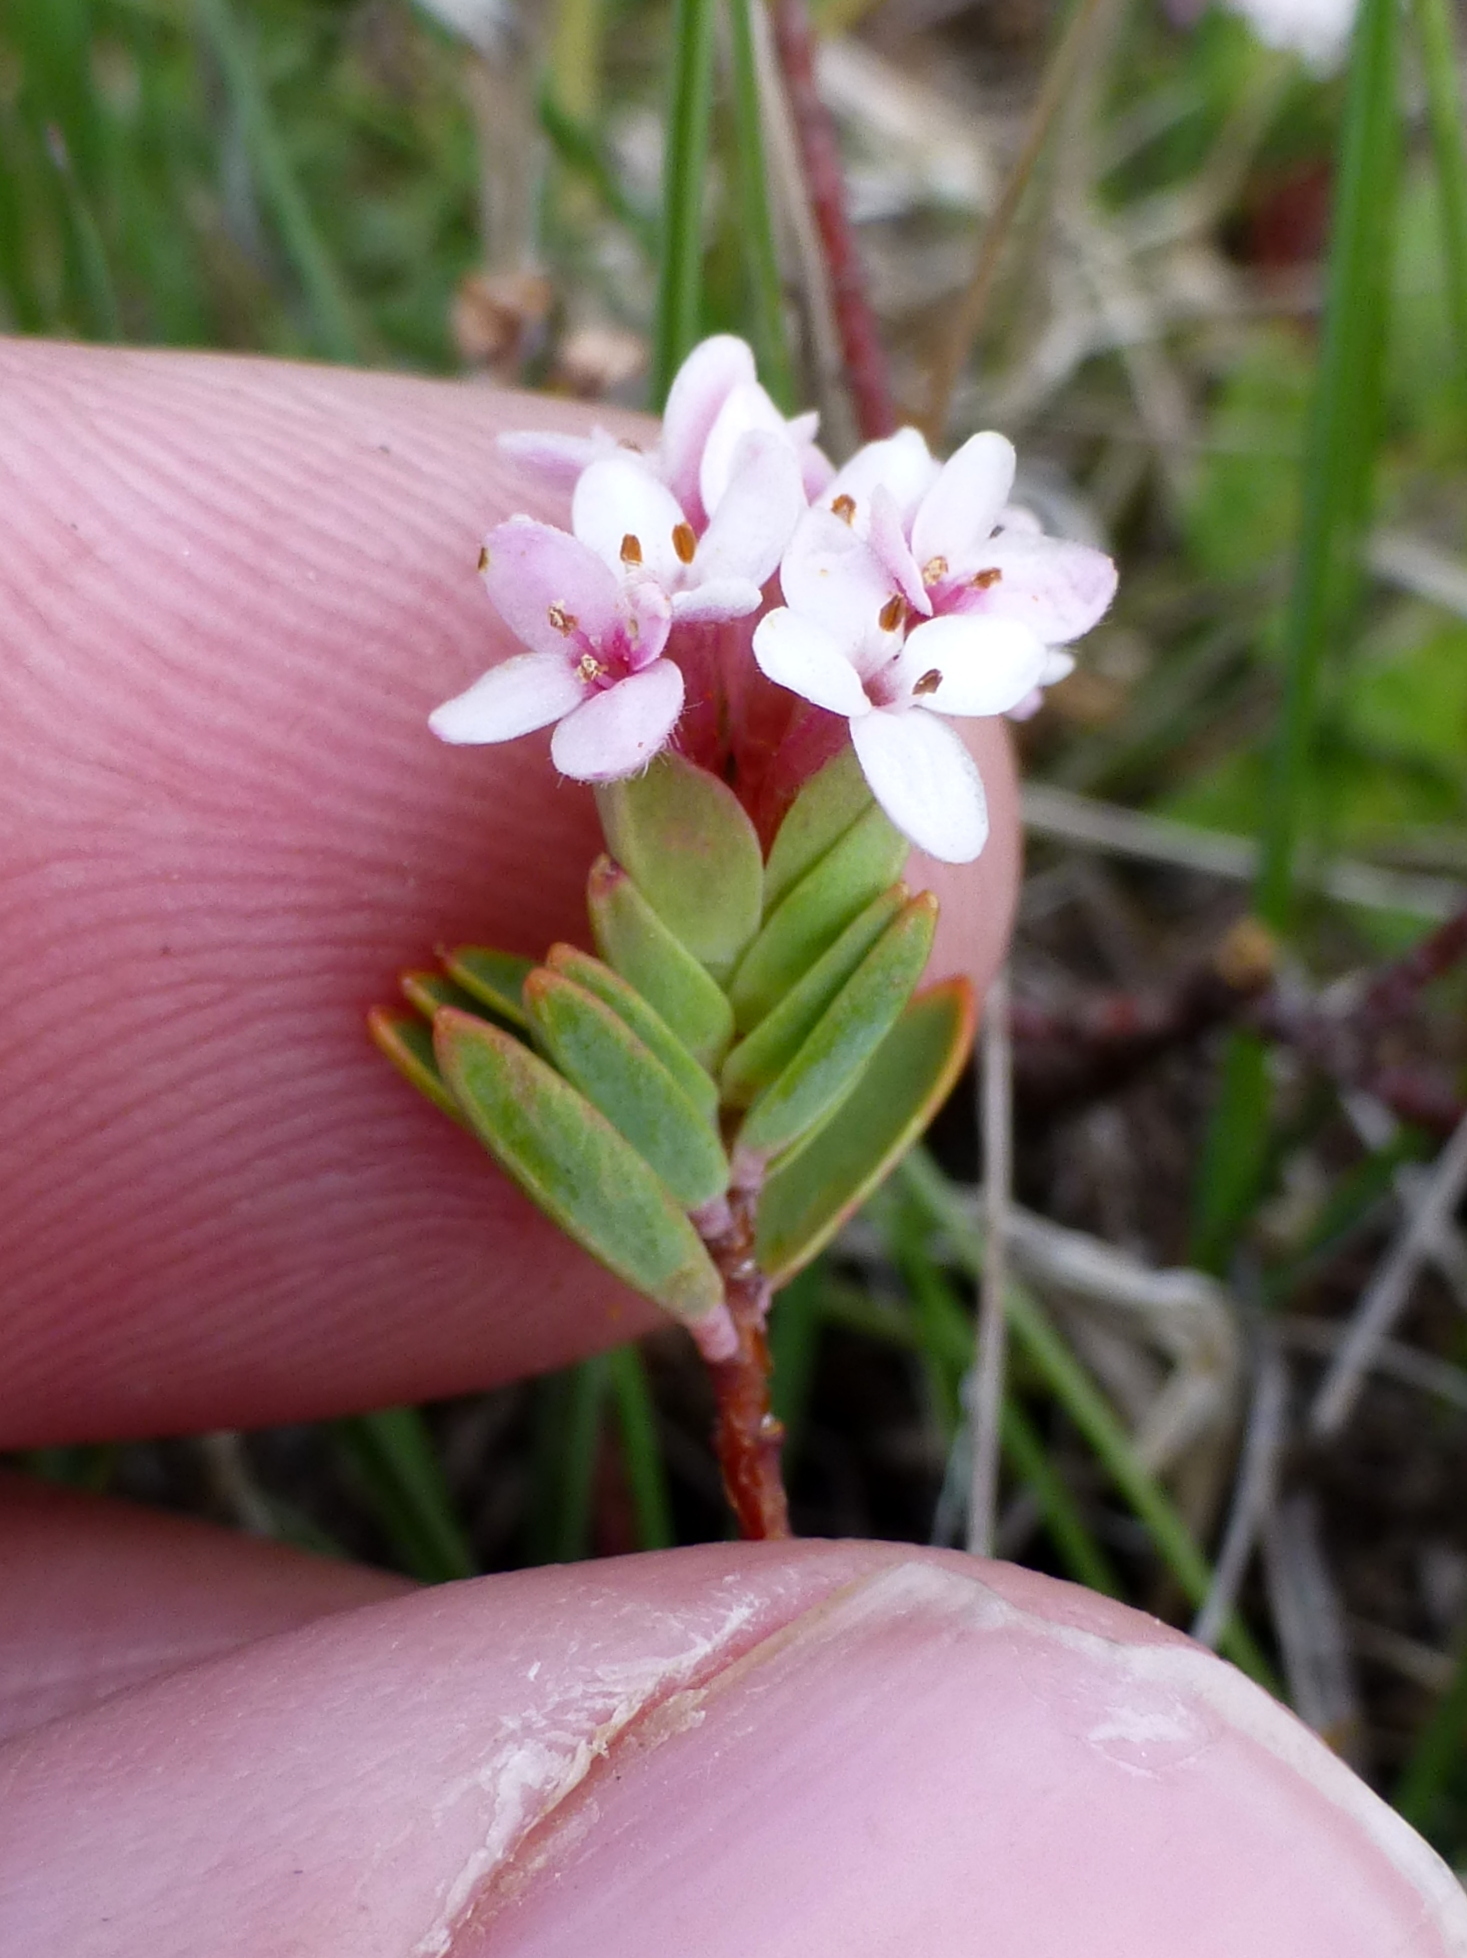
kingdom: Plantae
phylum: Tracheophyta
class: Magnoliopsida
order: Malvales
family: Thymelaeaceae
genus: Pimelea
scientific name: Pimelea alpina
